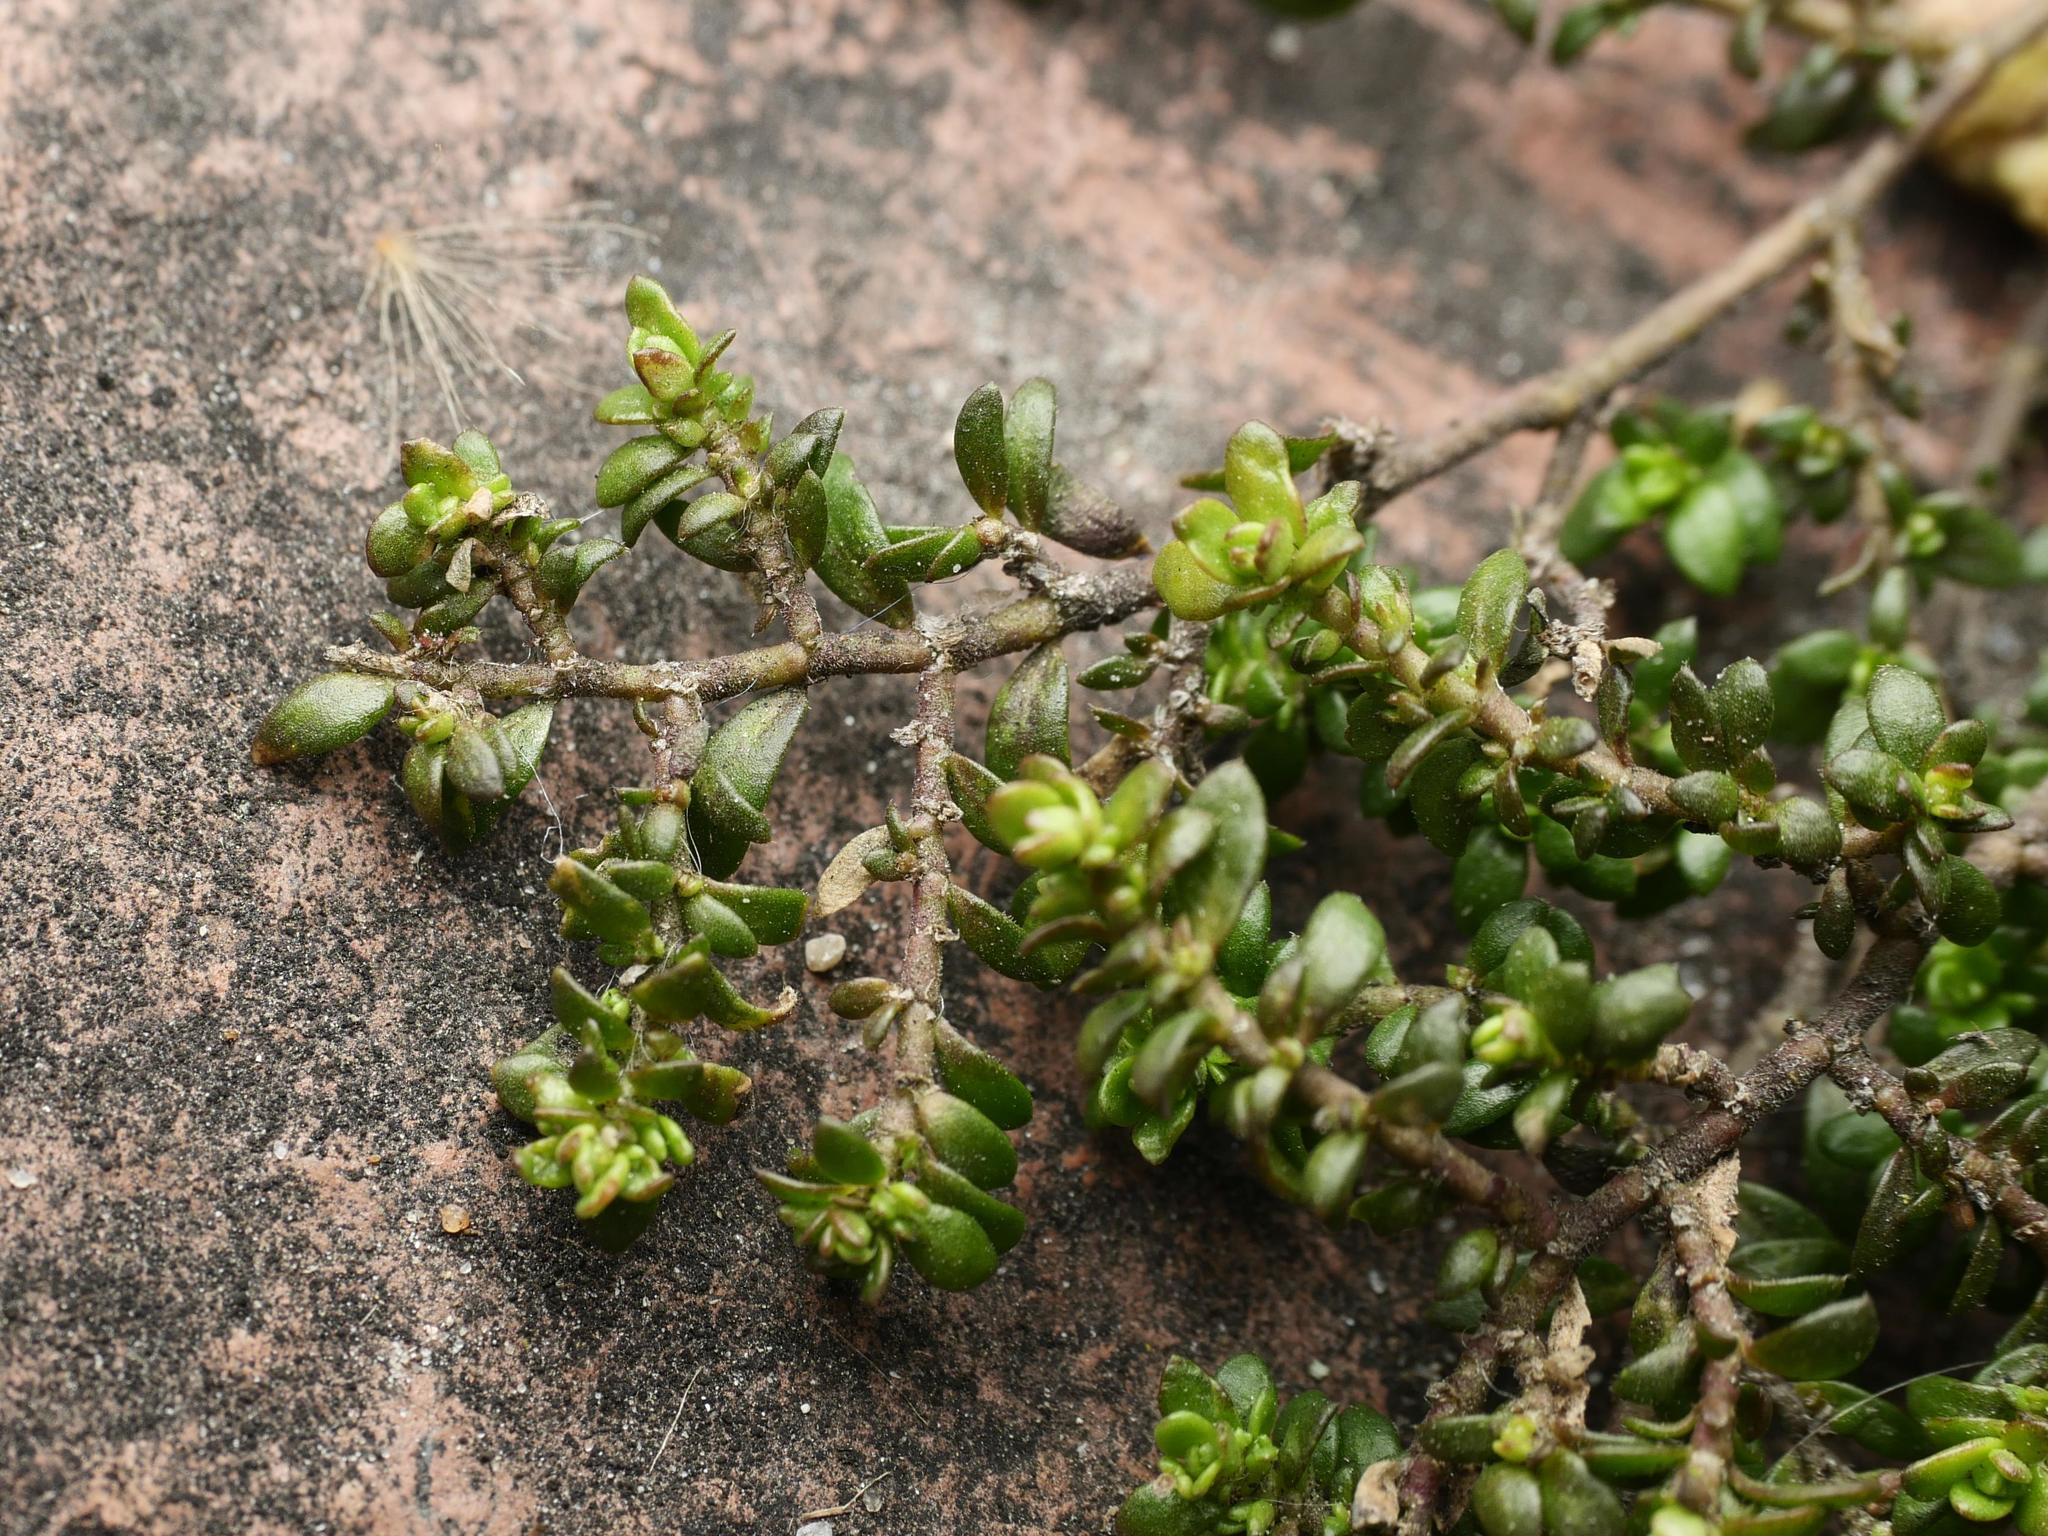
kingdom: Plantae
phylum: Tracheophyta
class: Magnoliopsida
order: Caryophyllales
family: Caryophyllaceae
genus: Herniaria
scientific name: Herniaria glabra
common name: Smooth rupturewort
